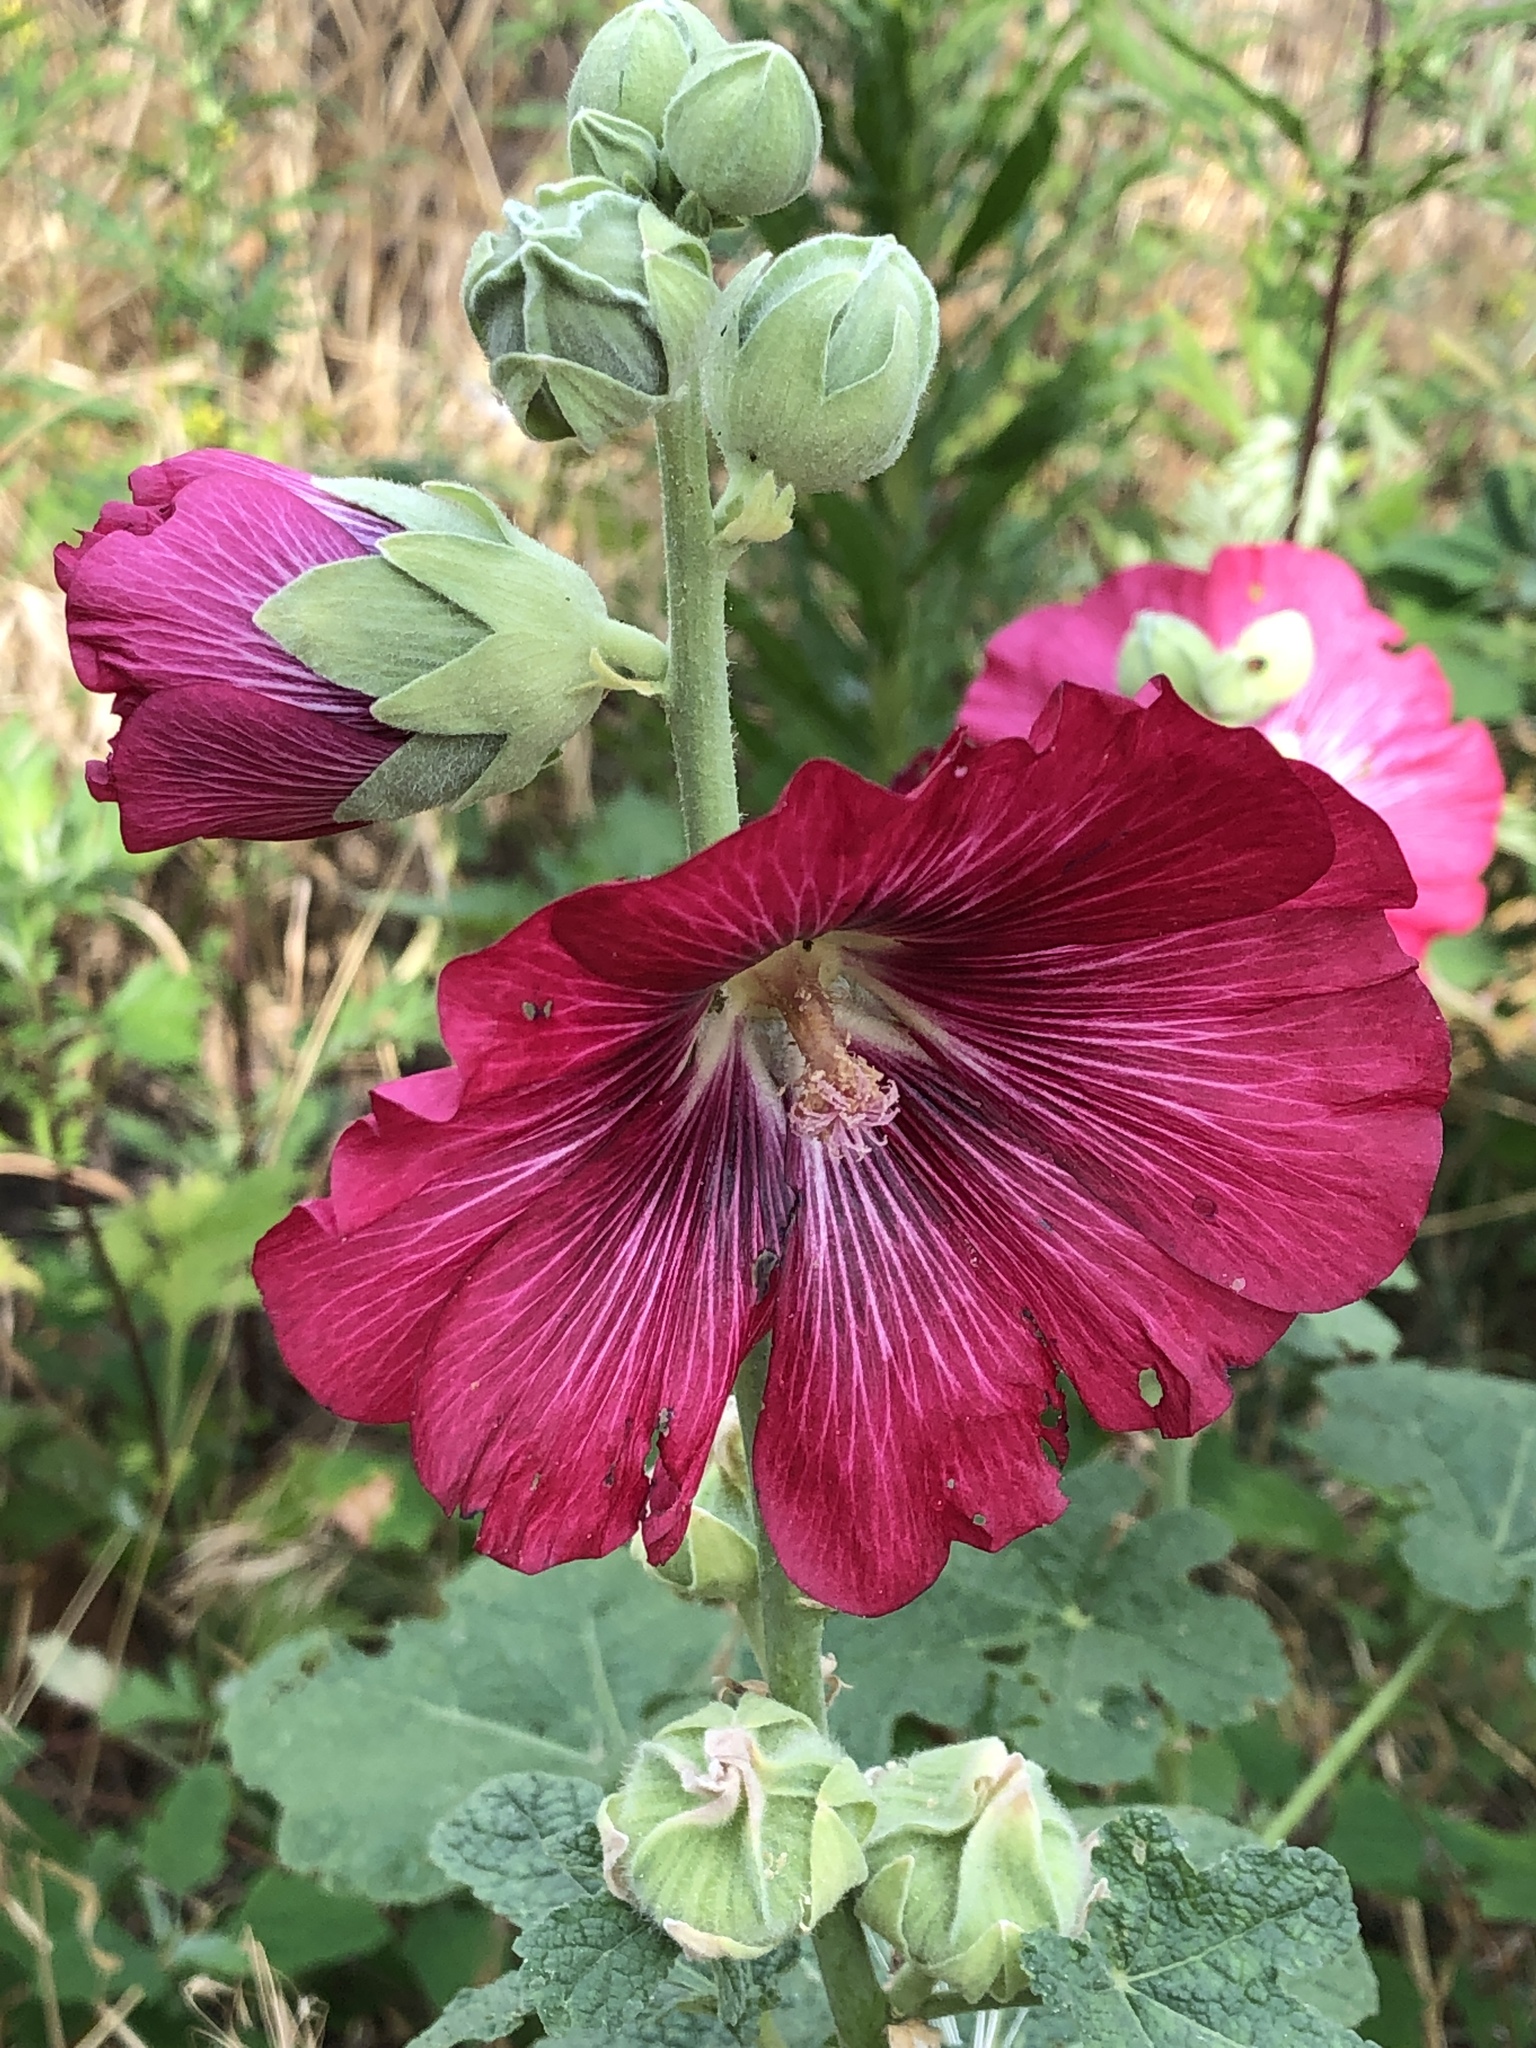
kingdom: Plantae
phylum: Tracheophyta
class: Magnoliopsida
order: Malvales
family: Malvaceae
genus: Alcea
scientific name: Alcea rosea
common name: Hollyhock
